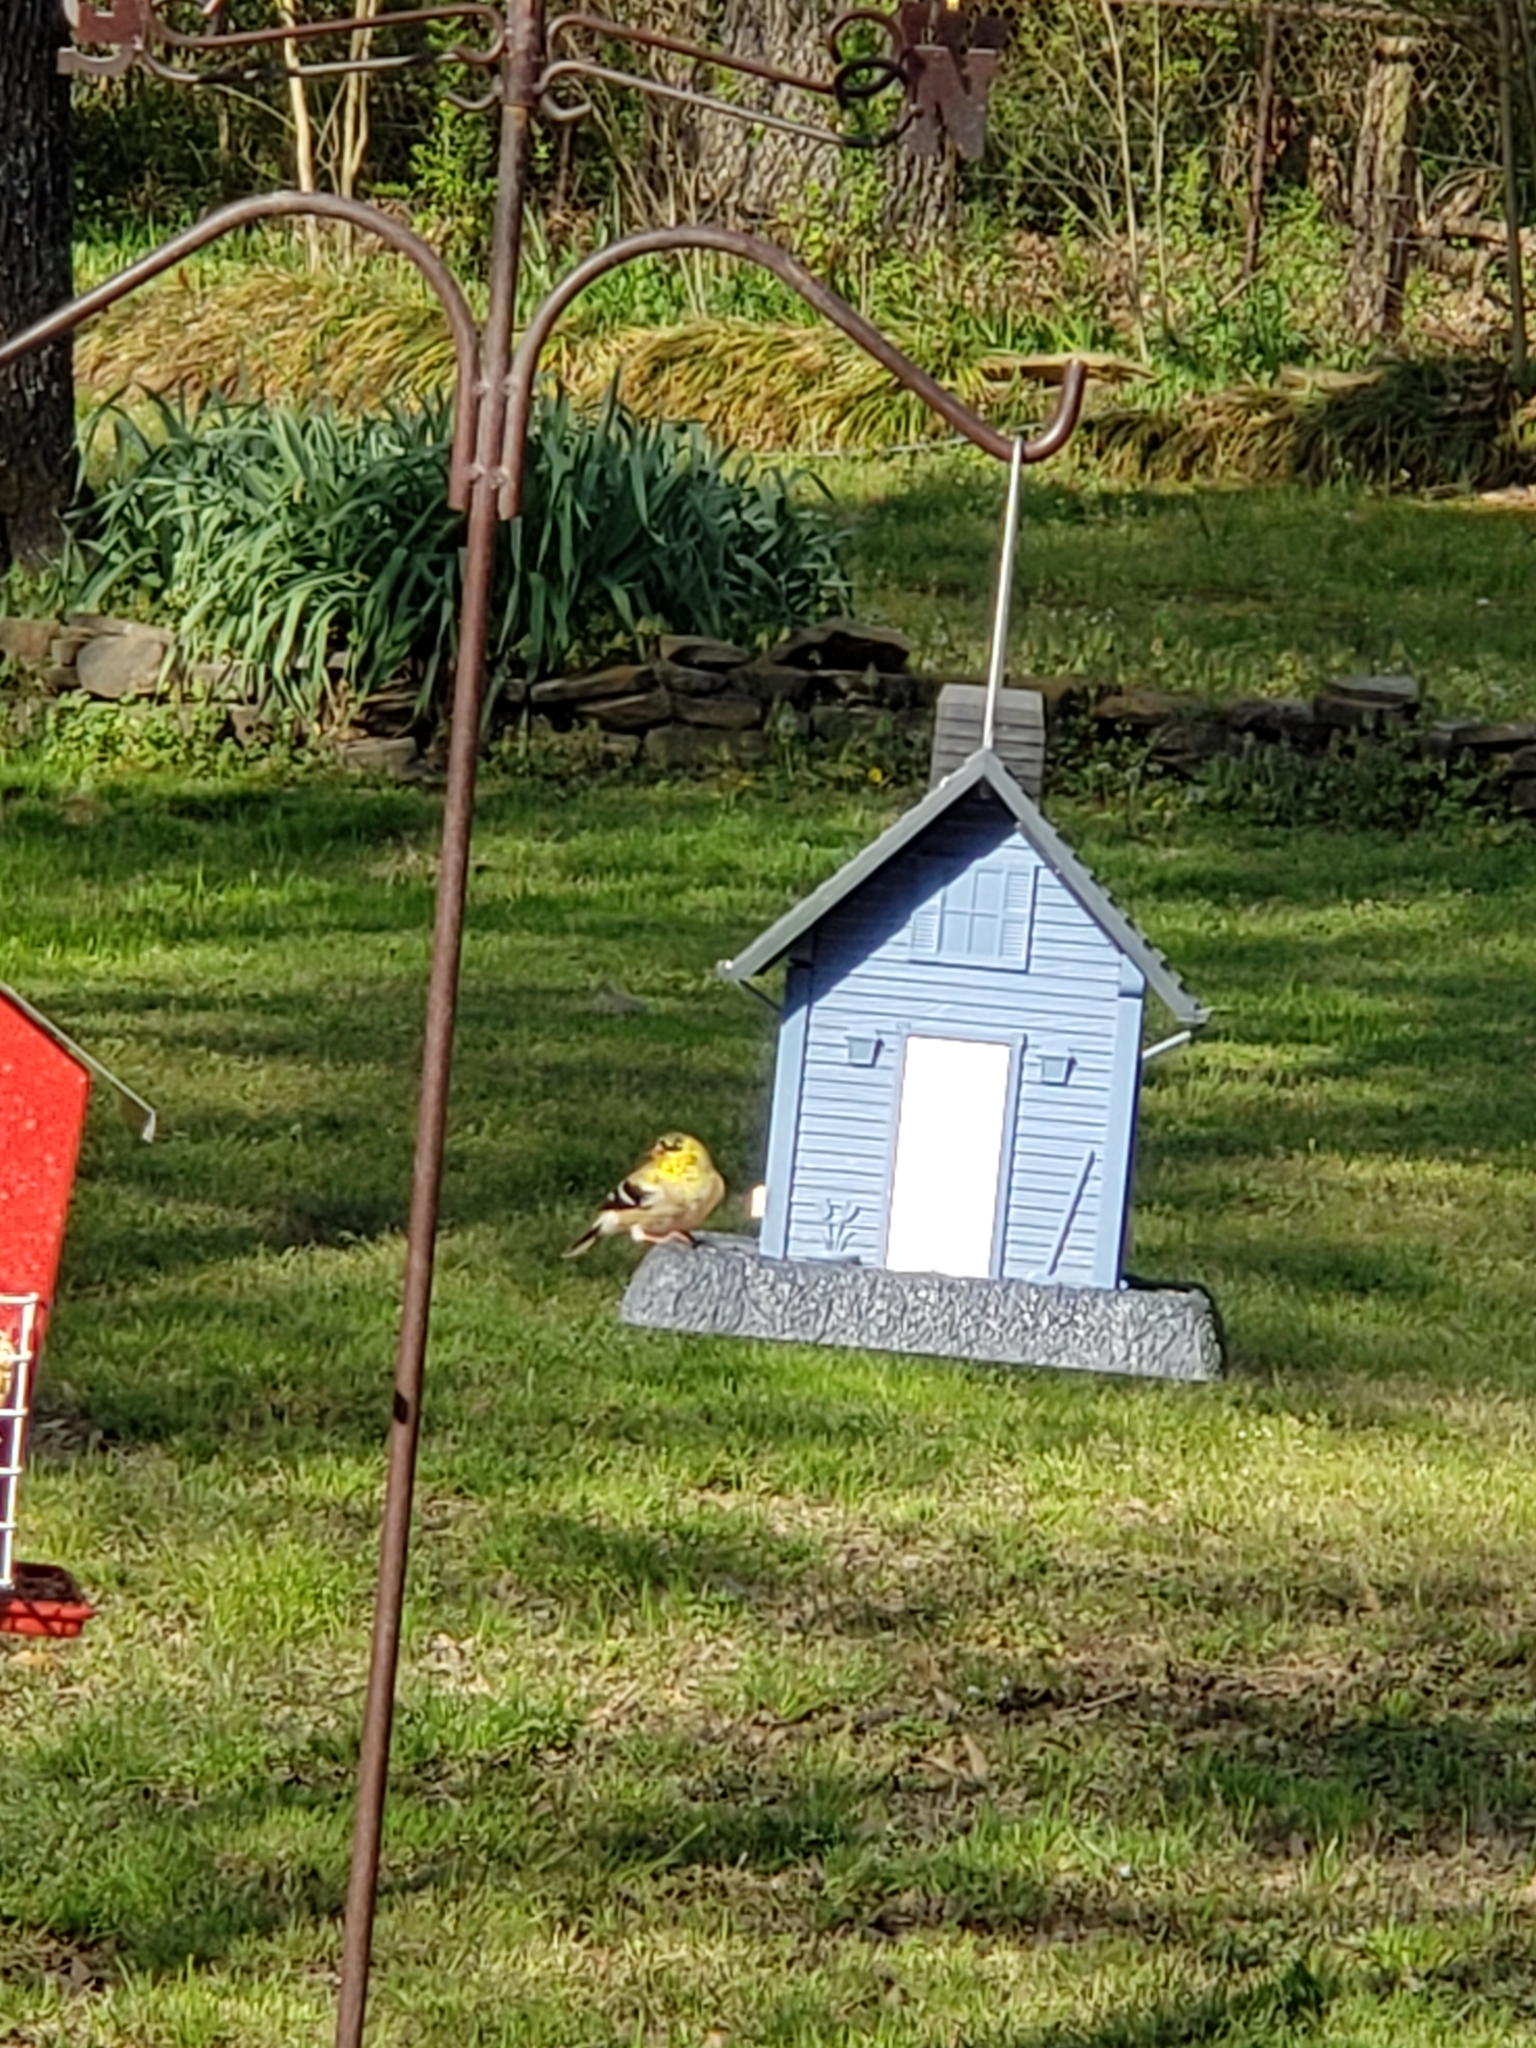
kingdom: Animalia
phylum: Chordata
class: Aves
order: Passeriformes
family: Fringillidae
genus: Spinus
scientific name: Spinus tristis
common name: American goldfinch
